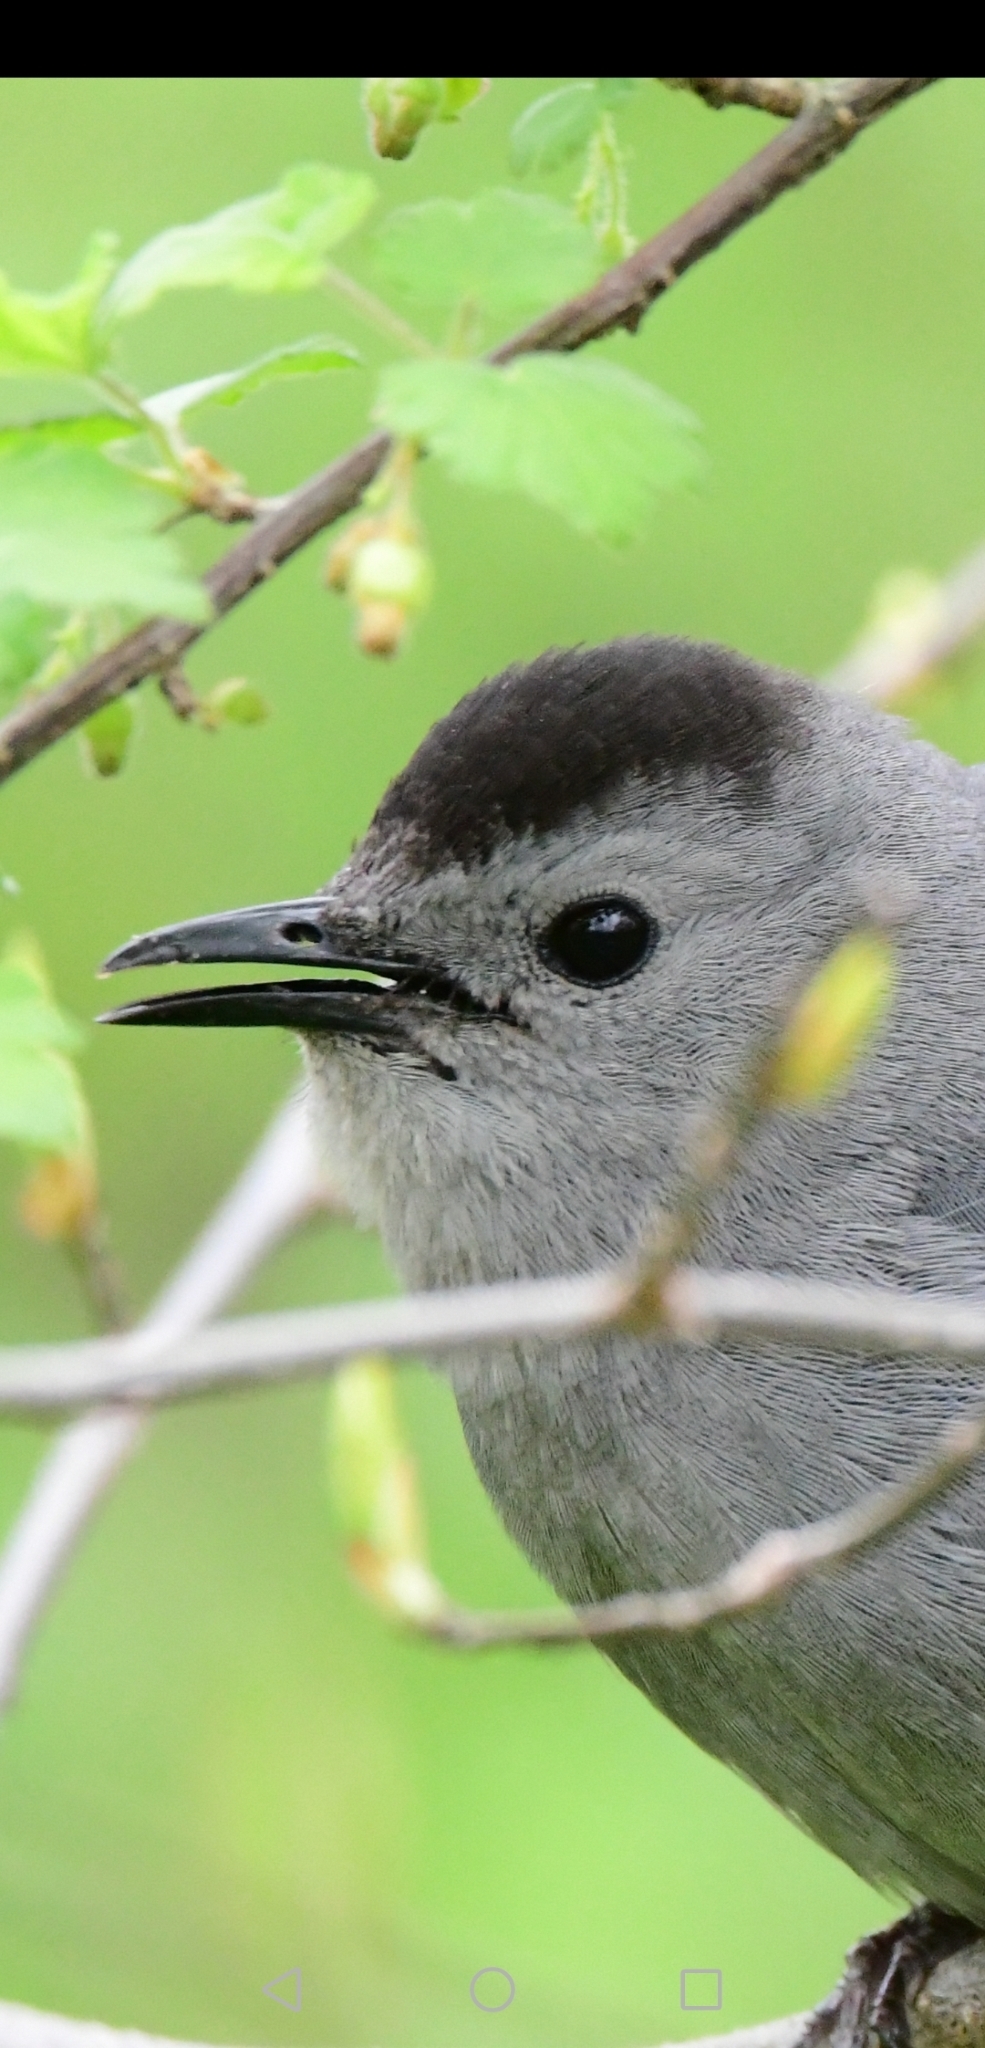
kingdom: Animalia
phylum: Chordata
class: Aves
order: Passeriformes
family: Mimidae
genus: Dumetella
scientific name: Dumetella carolinensis
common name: Gray catbird
